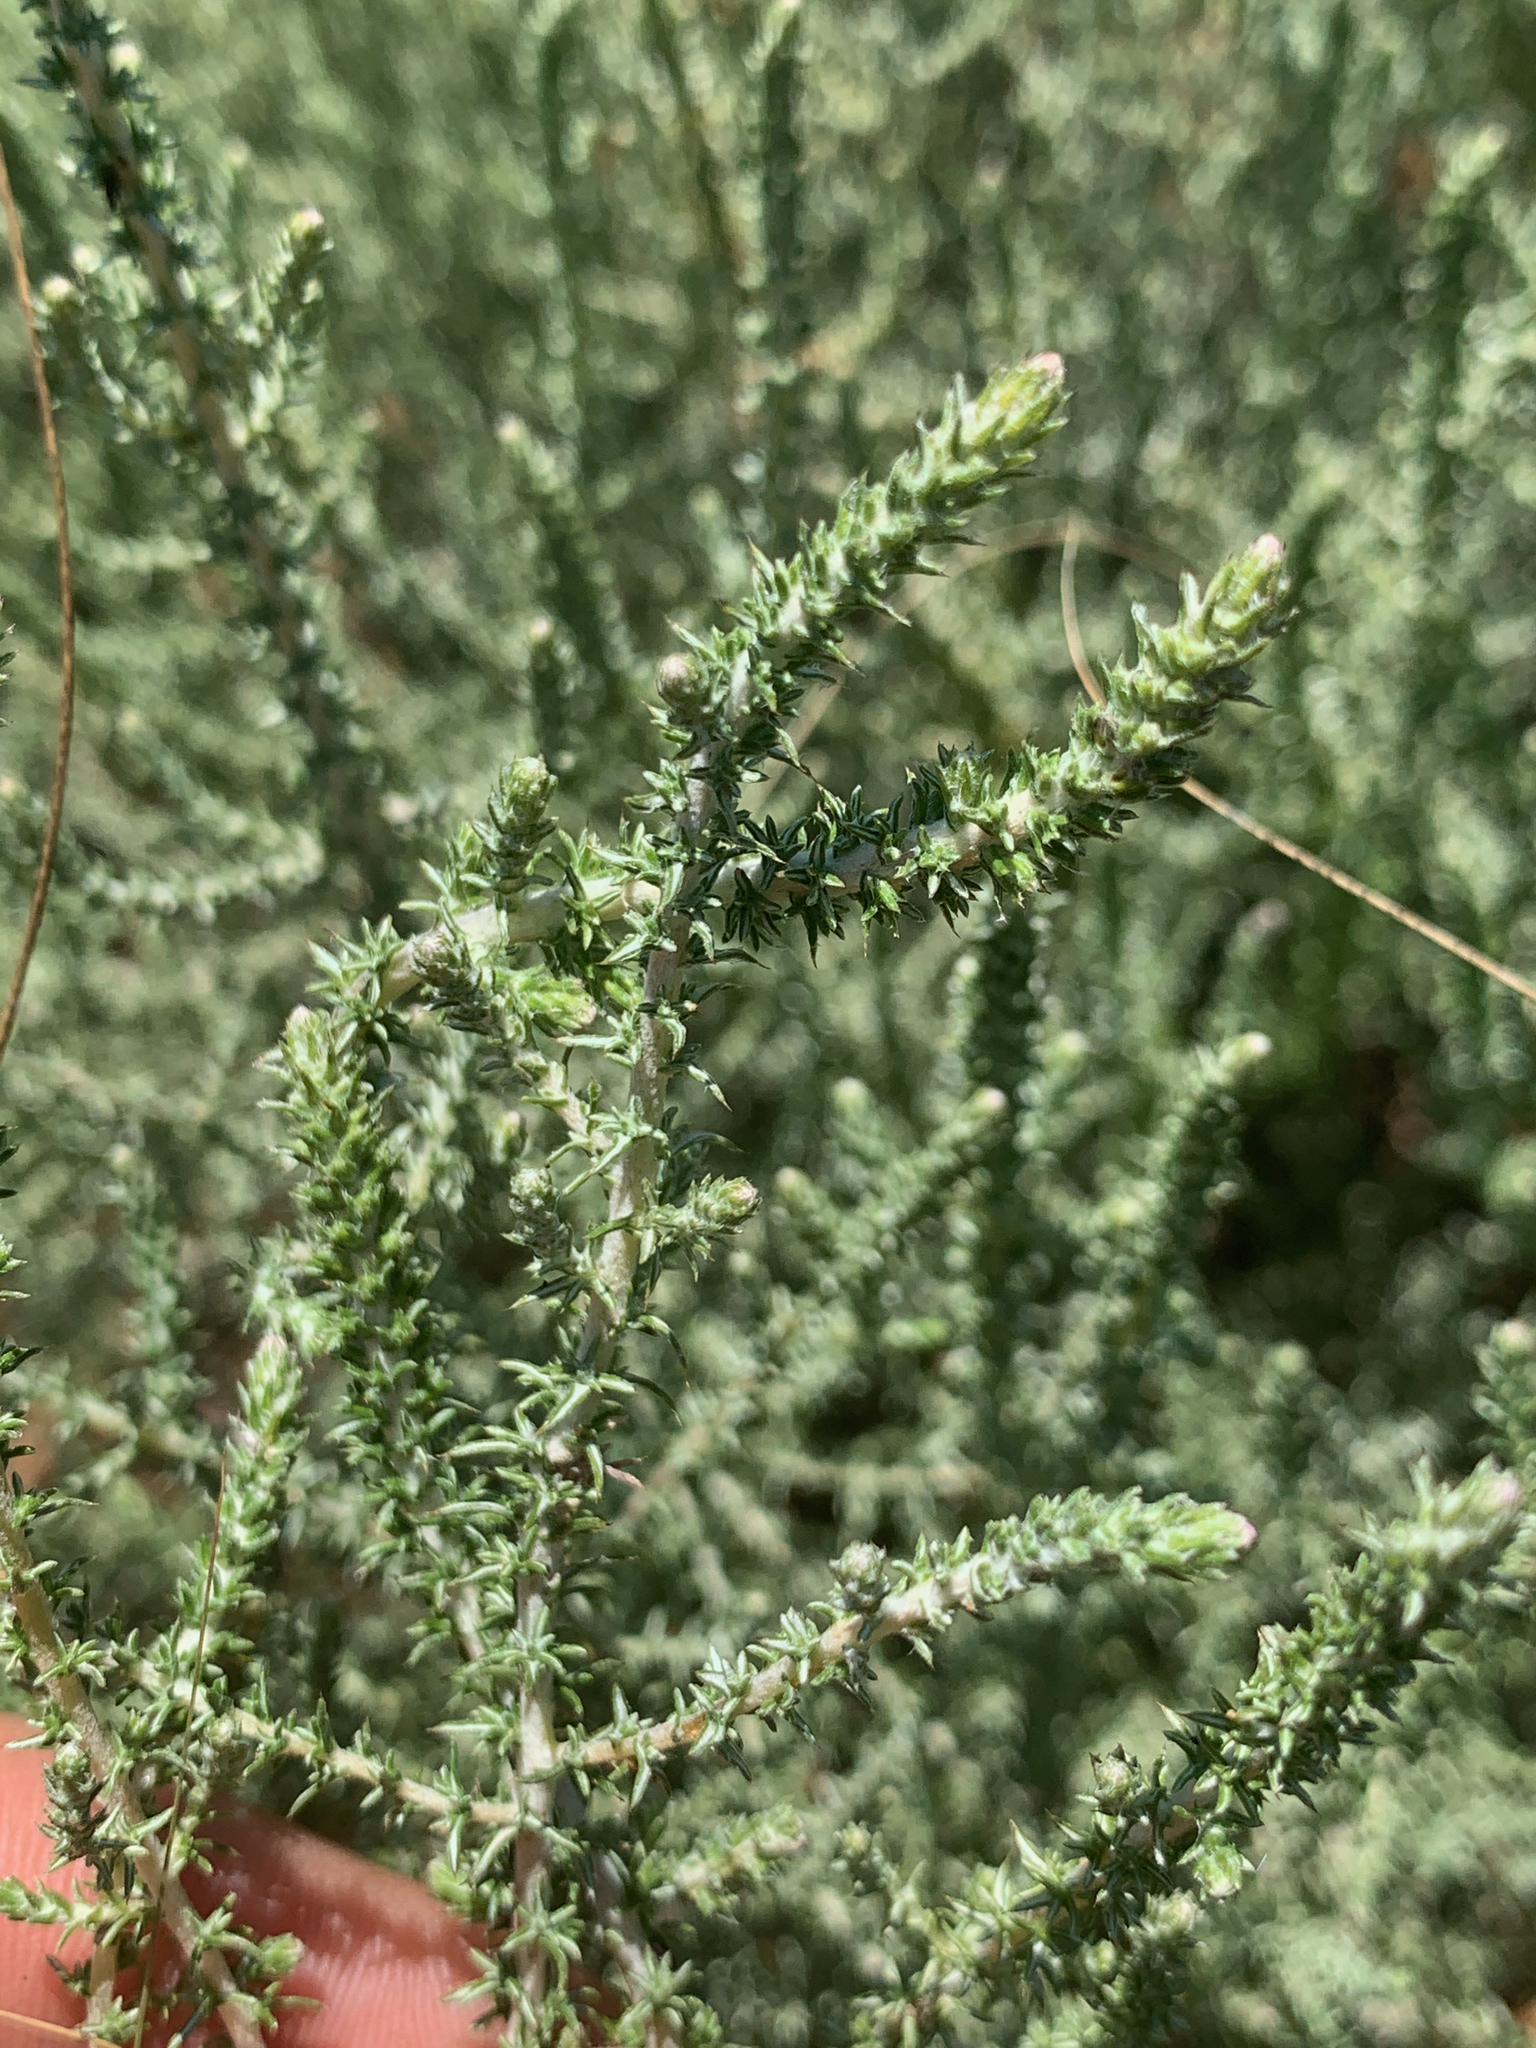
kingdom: Plantae
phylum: Tracheophyta
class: Magnoliopsida
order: Asterales
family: Asteraceae
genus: Seriphium
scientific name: Seriphium
